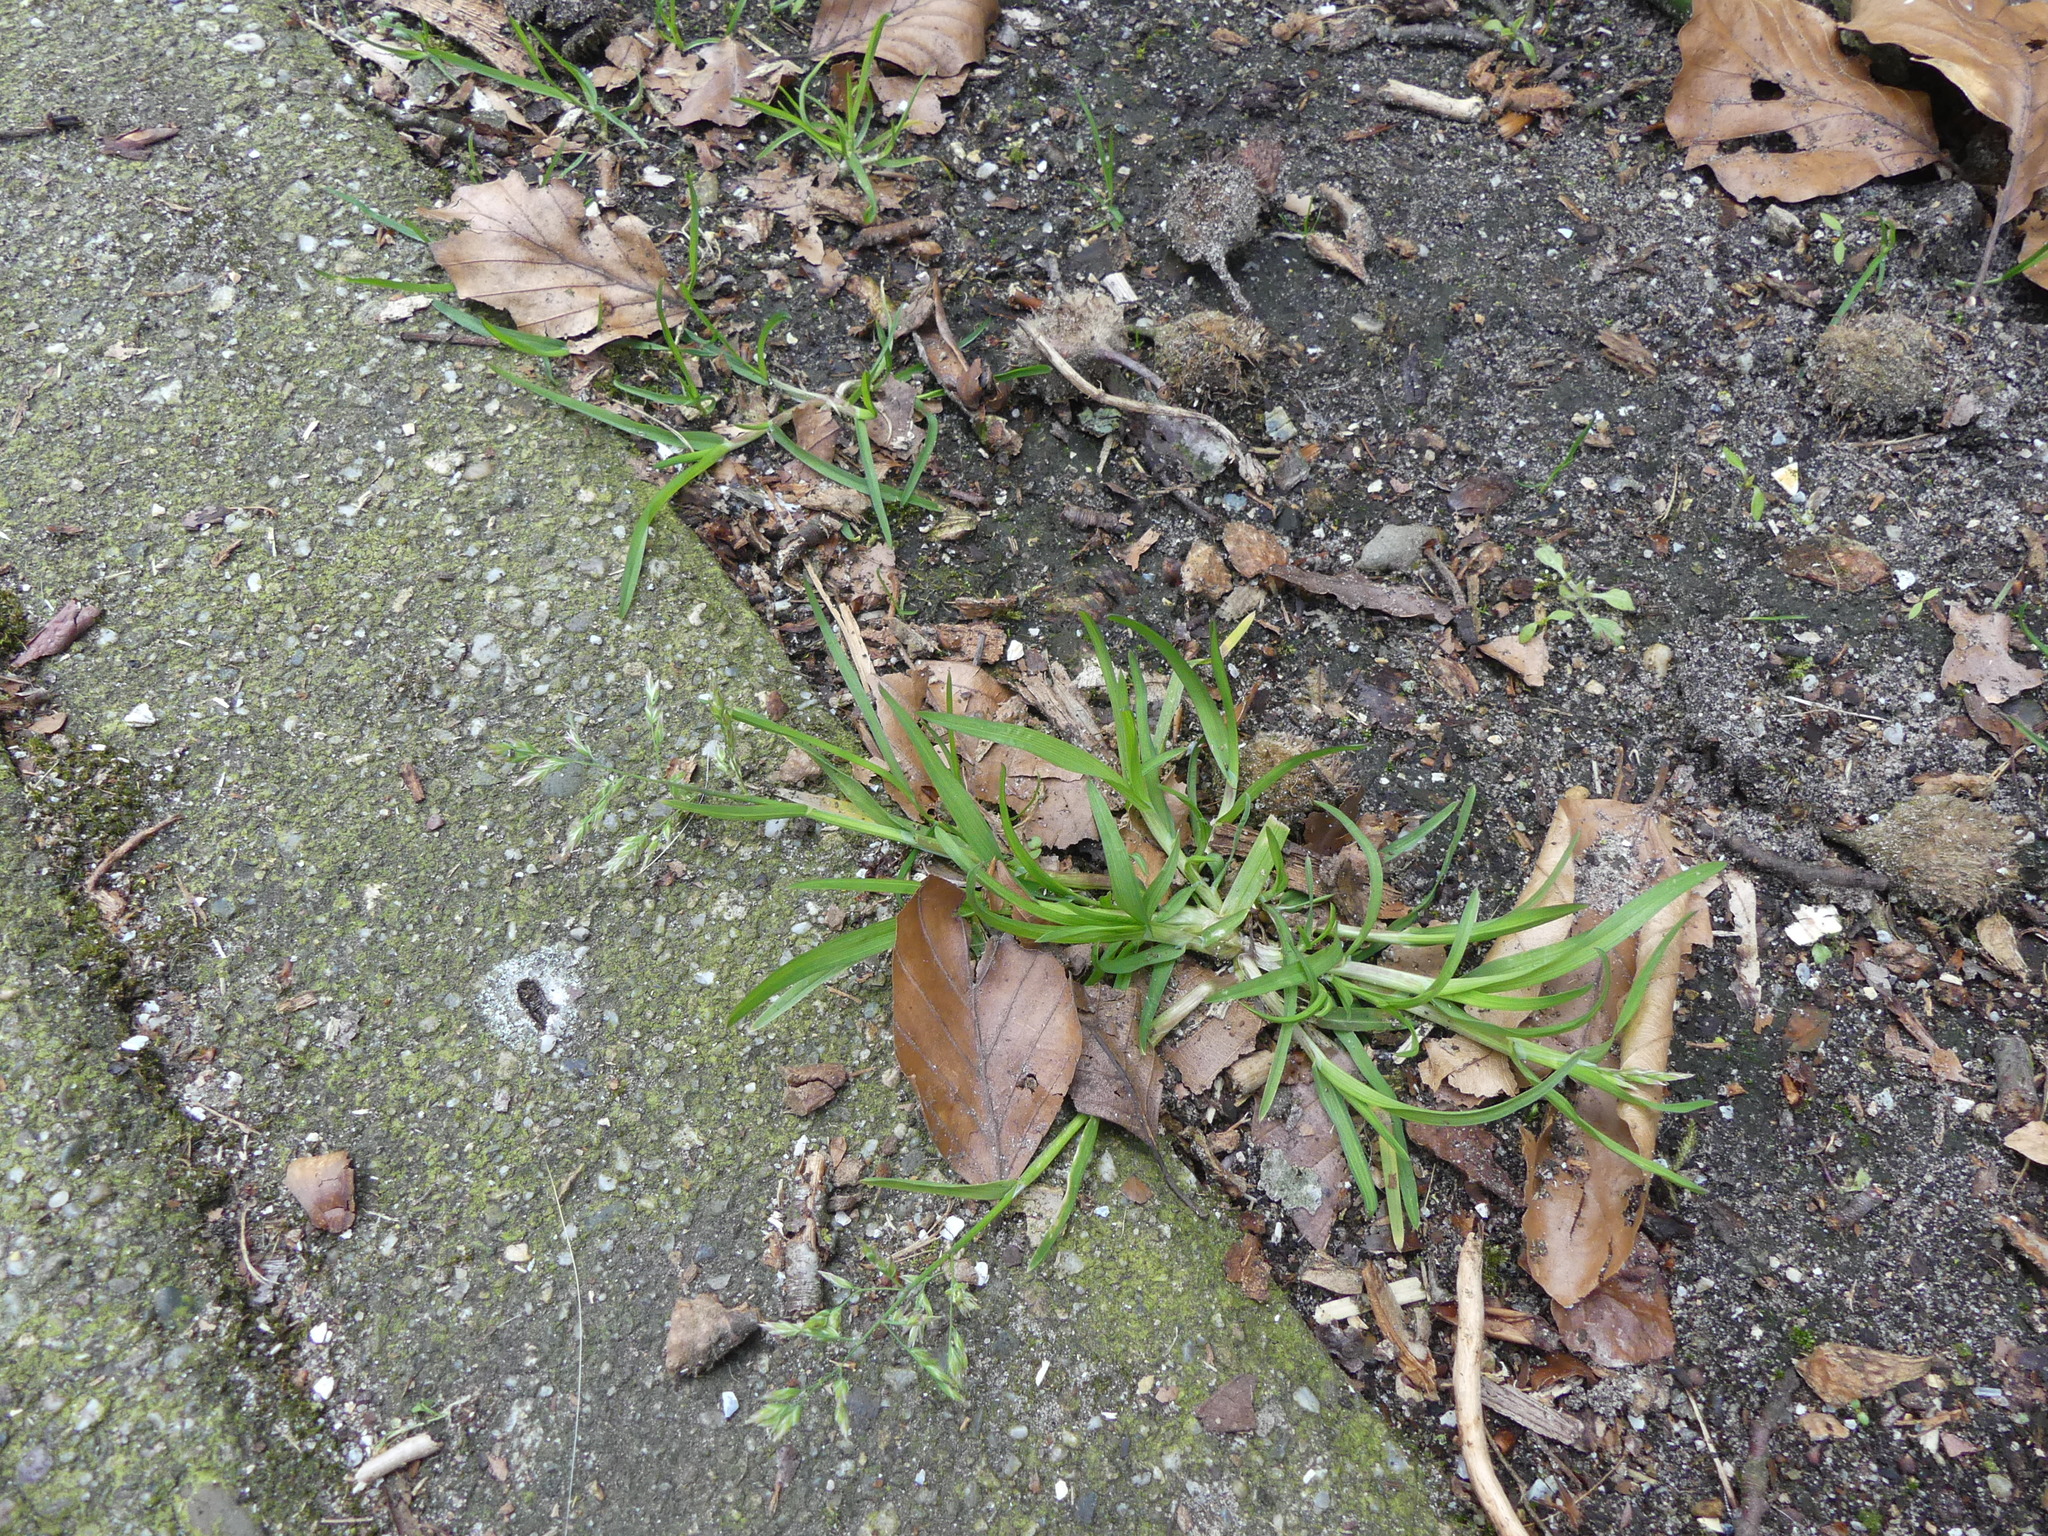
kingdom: Plantae
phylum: Tracheophyta
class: Liliopsida
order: Poales
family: Poaceae
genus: Poa
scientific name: Poa annua
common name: Annual bluegrass
